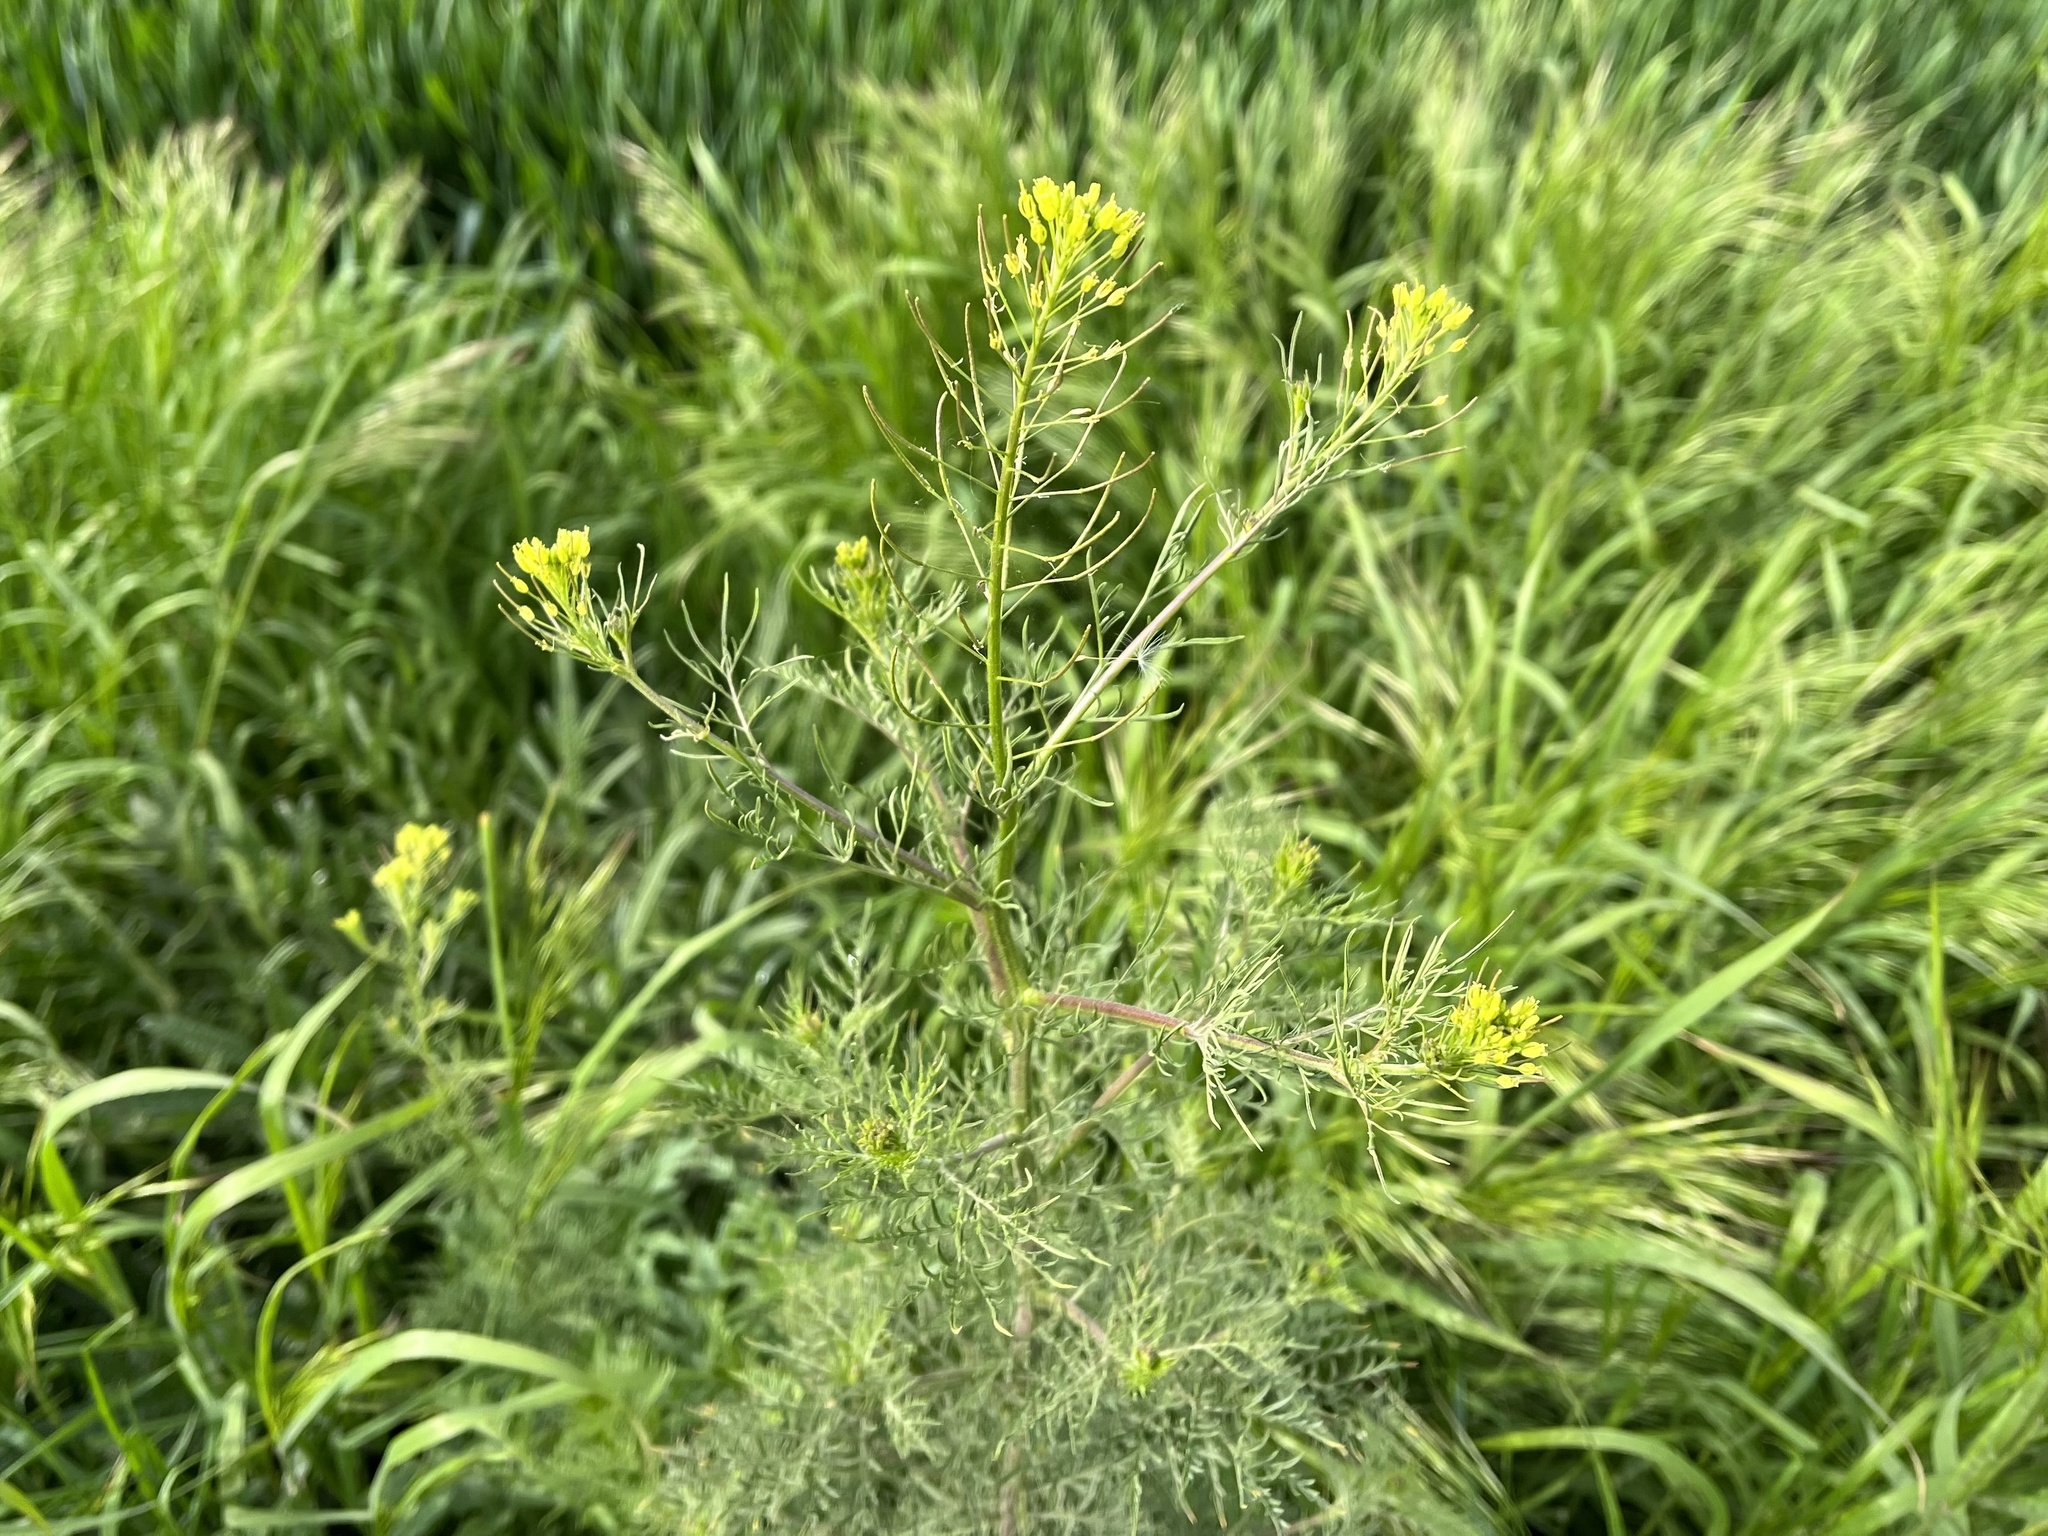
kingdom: Plantae
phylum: Tracheophyta
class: Magnoliopsida
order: Brassicales
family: Brassicaceae
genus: Descurainia
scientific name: Descurainia sophia
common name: Flixweed
